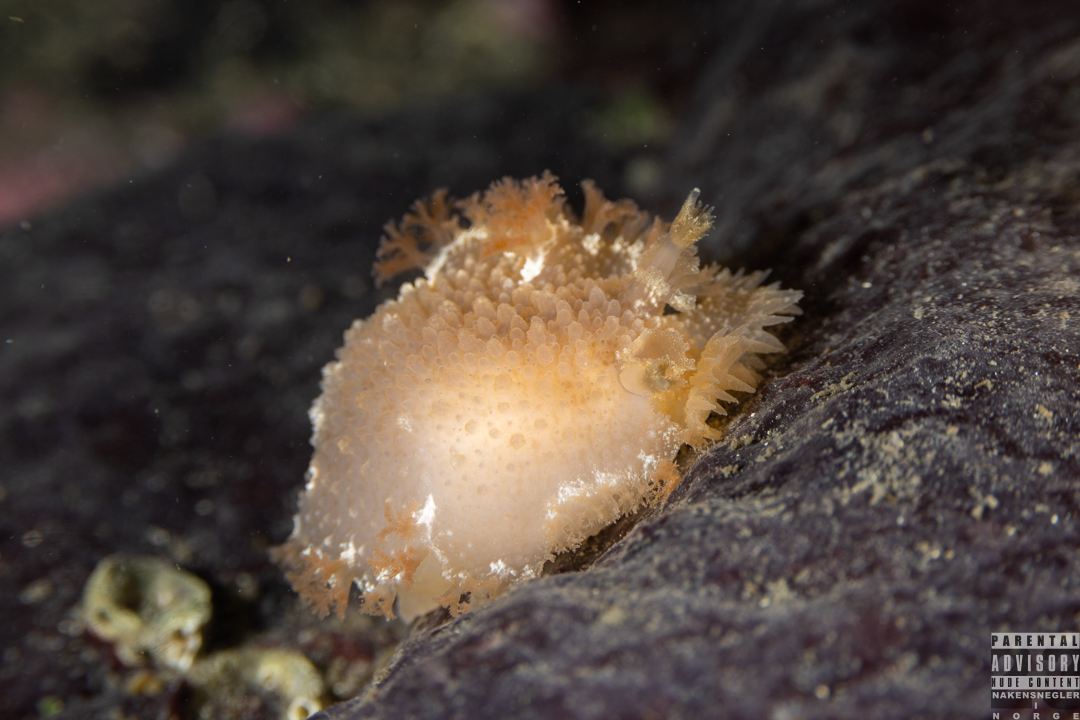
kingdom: Animalia
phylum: Mollusca
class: Gastropoda
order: Nudibranchia
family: Tritoniidae
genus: Tritonia
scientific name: Tritonia hombergii
